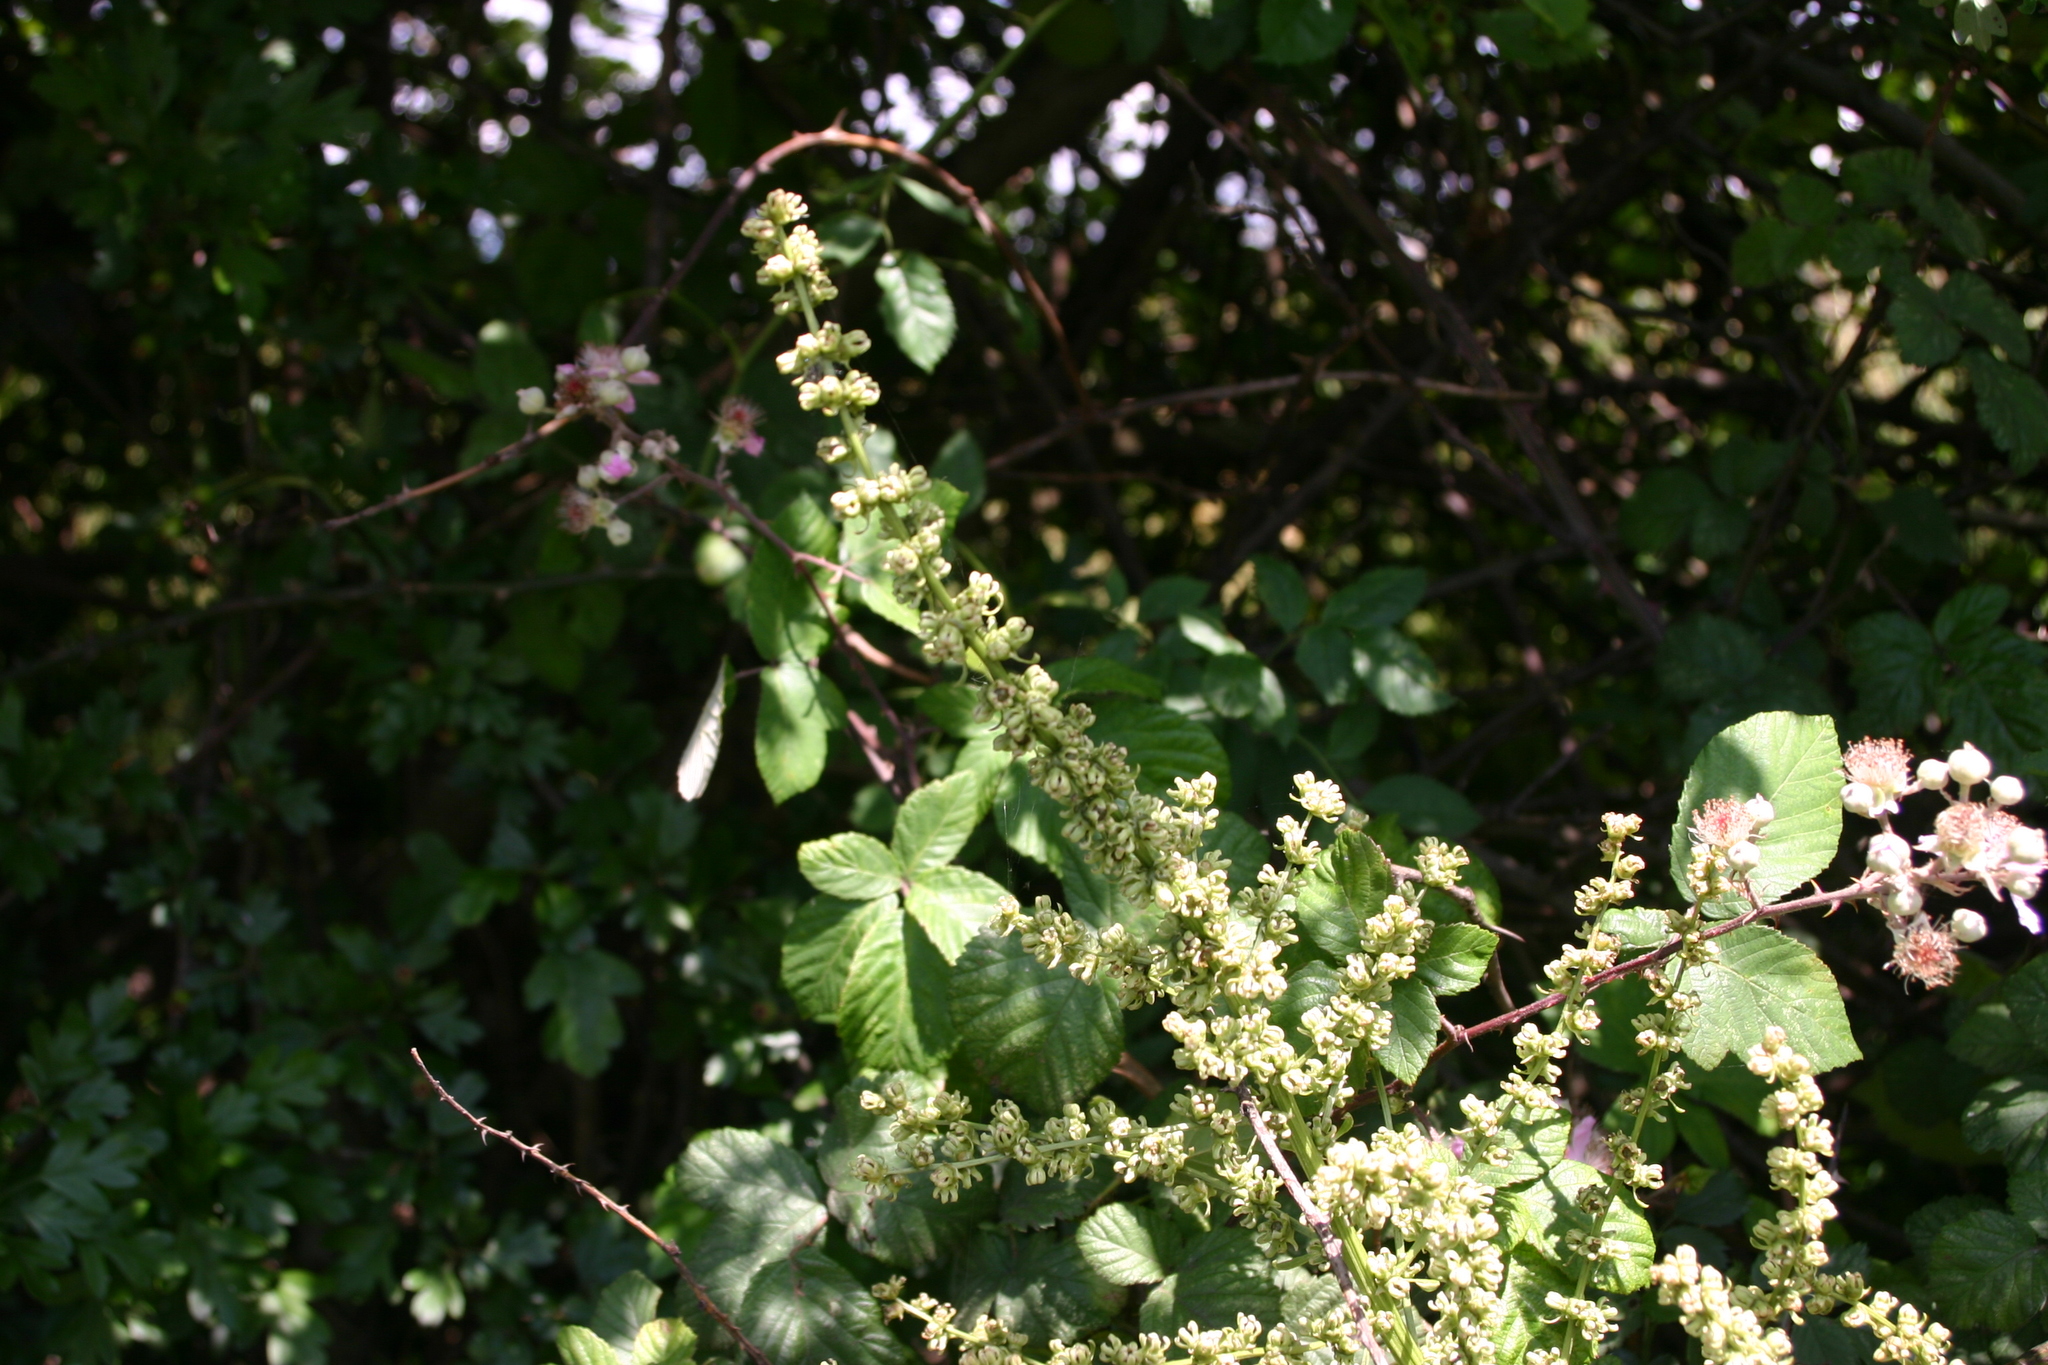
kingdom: Plantae
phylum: Tracheophyta
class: Magnoliopsida
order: Caryophyllales
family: Amaranthaceae
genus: Beta
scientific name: Beta trigyna
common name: Caucasian beet
